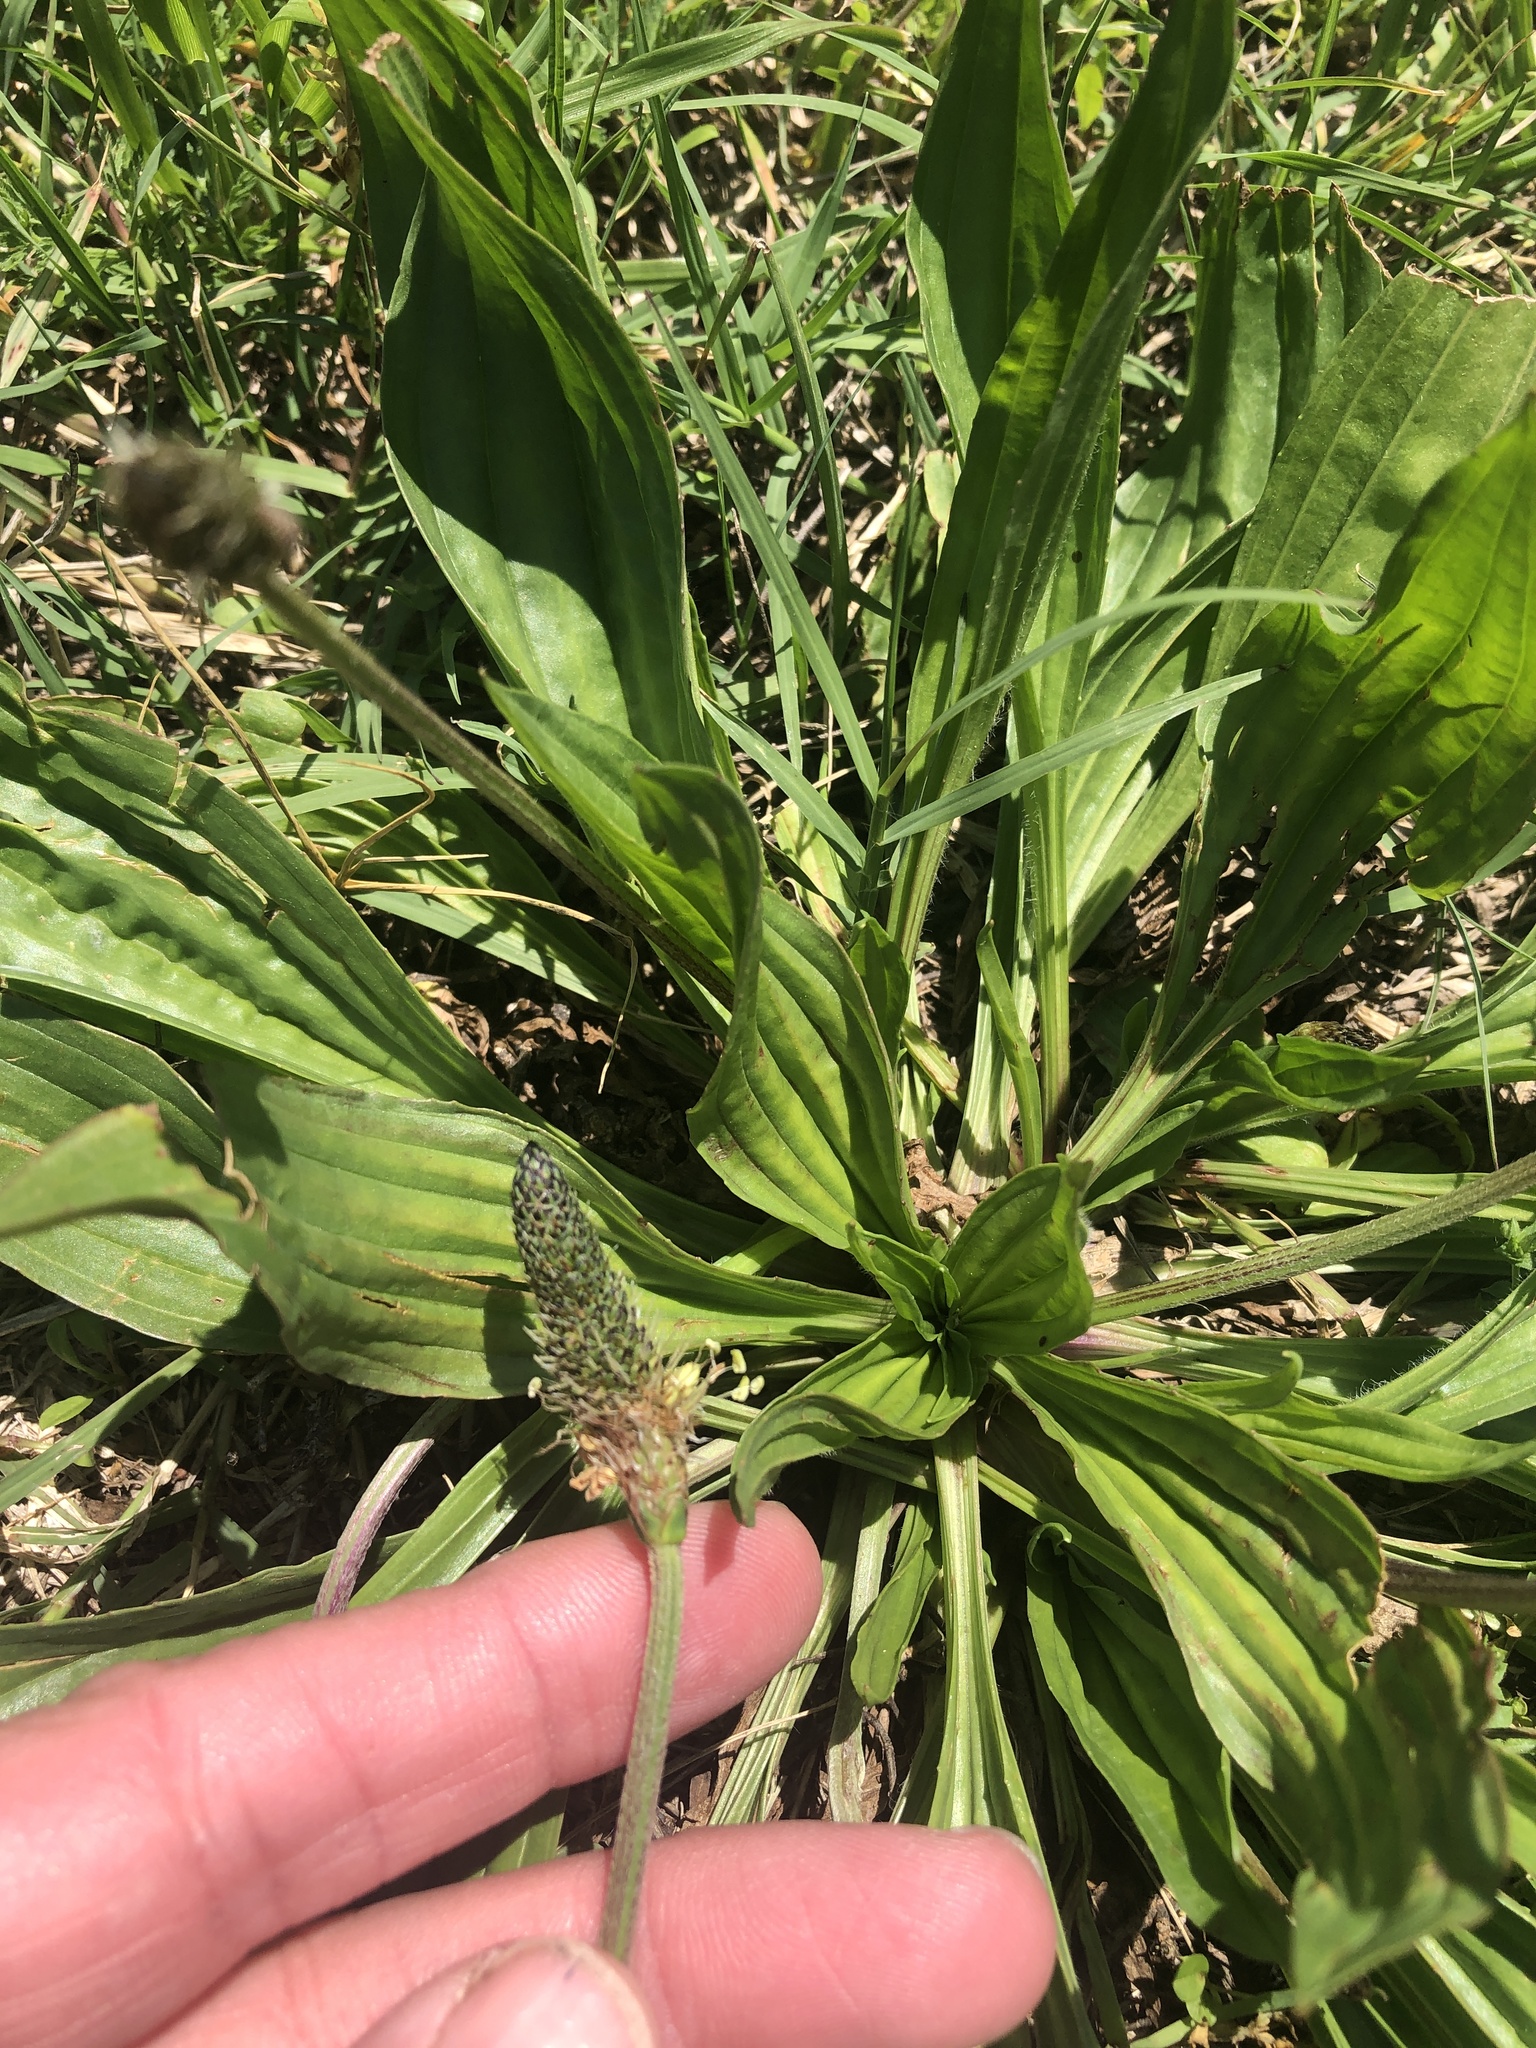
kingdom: Plantae
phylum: Tracheophyta
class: Magnoliopsida
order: Lamiales
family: Plantaginaceae
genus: Plantago
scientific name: Plantago lanceolata
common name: Ribwort plantain
